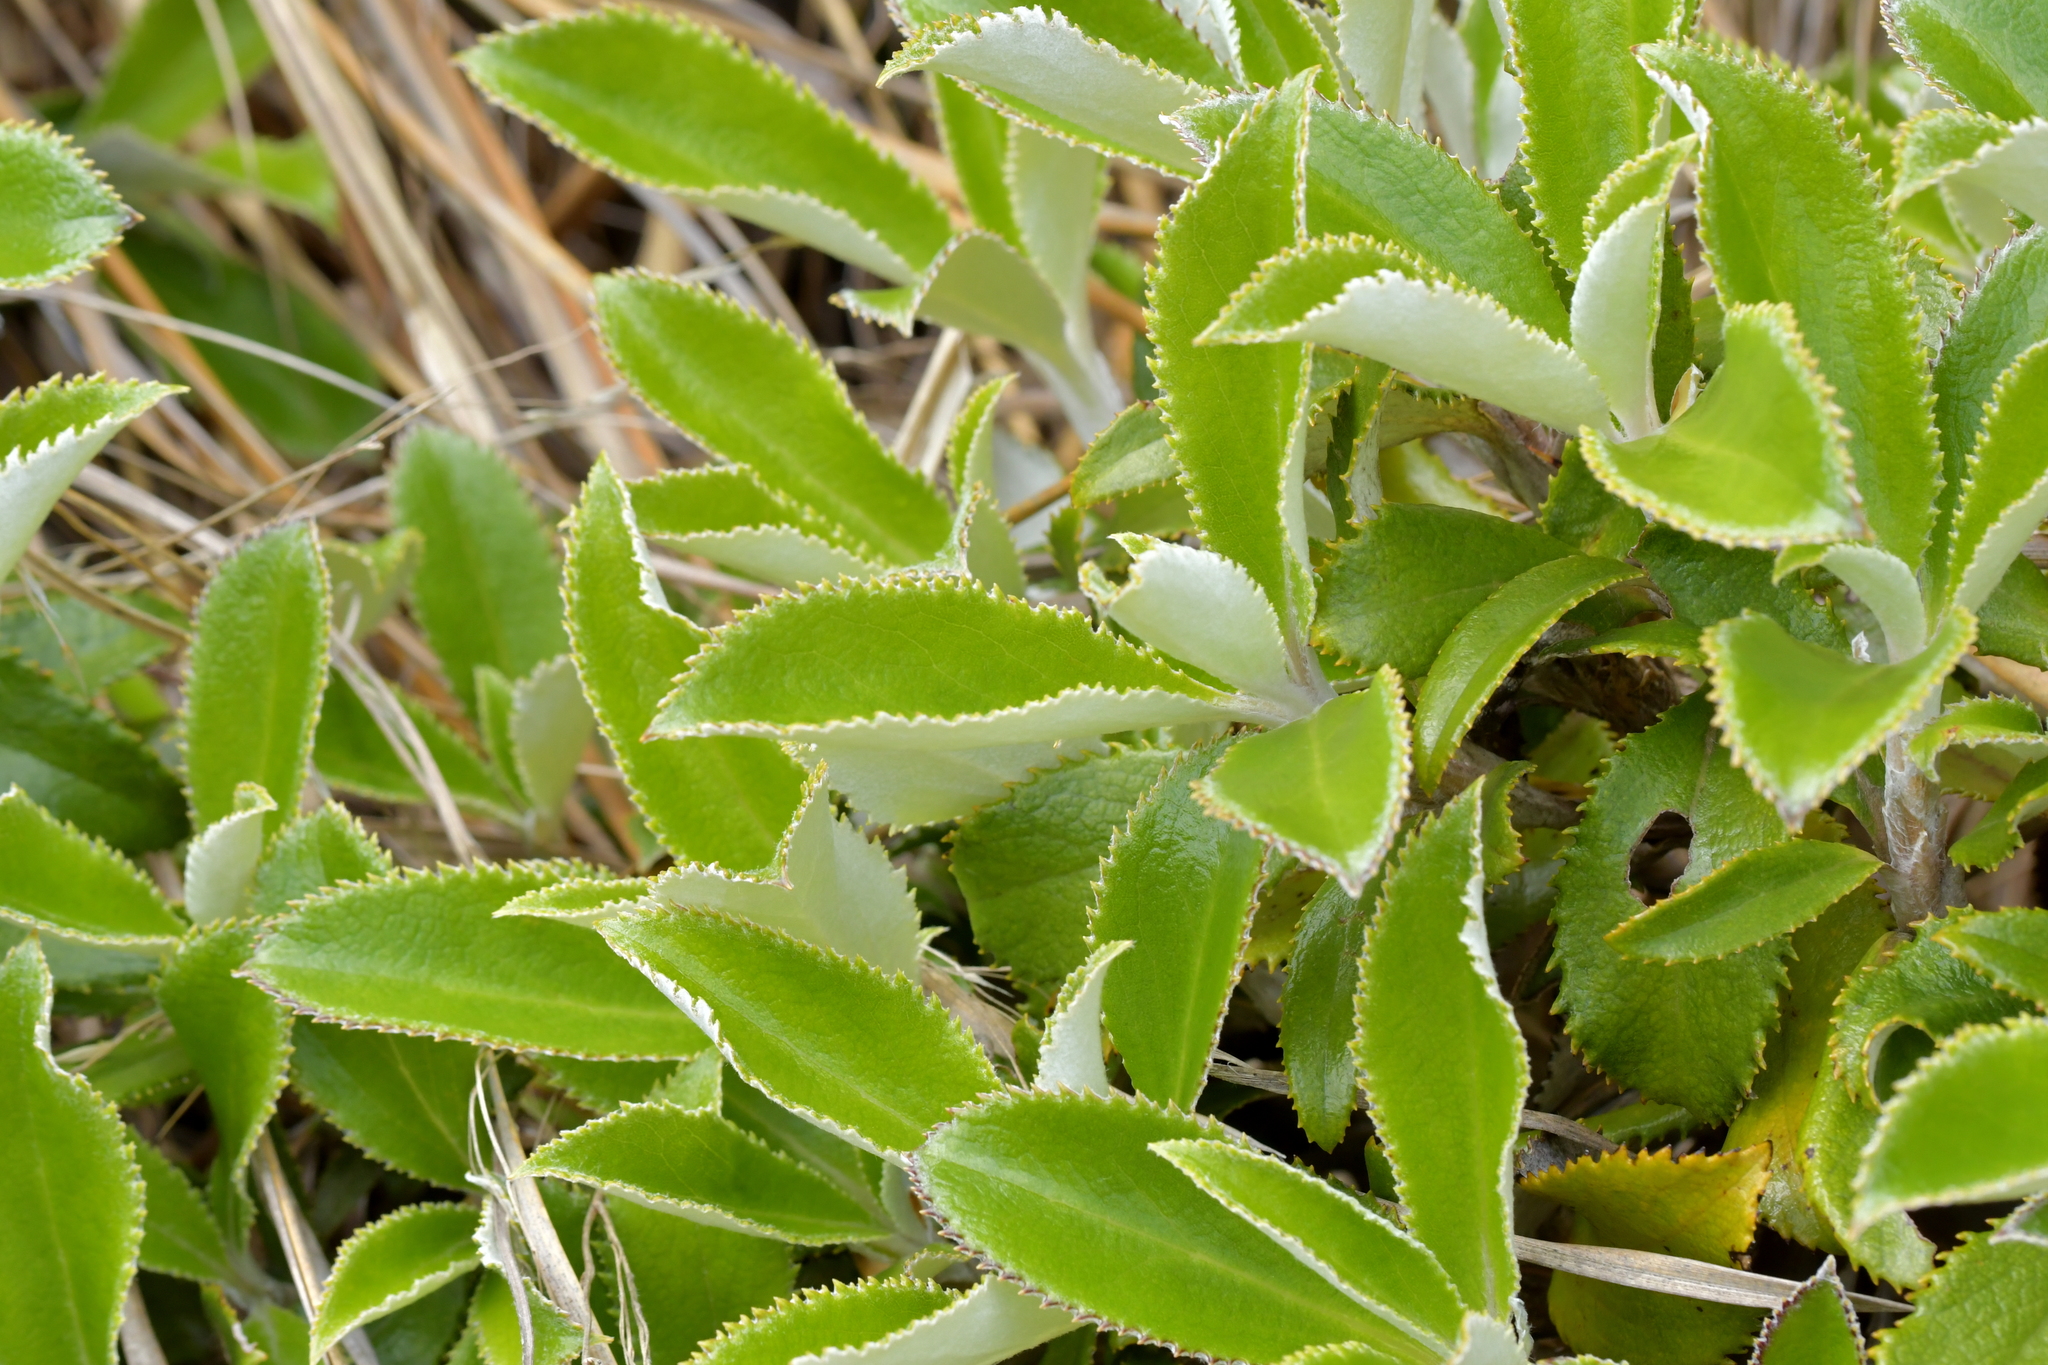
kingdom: Plantae
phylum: Tracheophyta
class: Magnoliopsida
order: Asterales
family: Asteraceae
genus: Macrolearia
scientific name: Macrolearia colensoi
